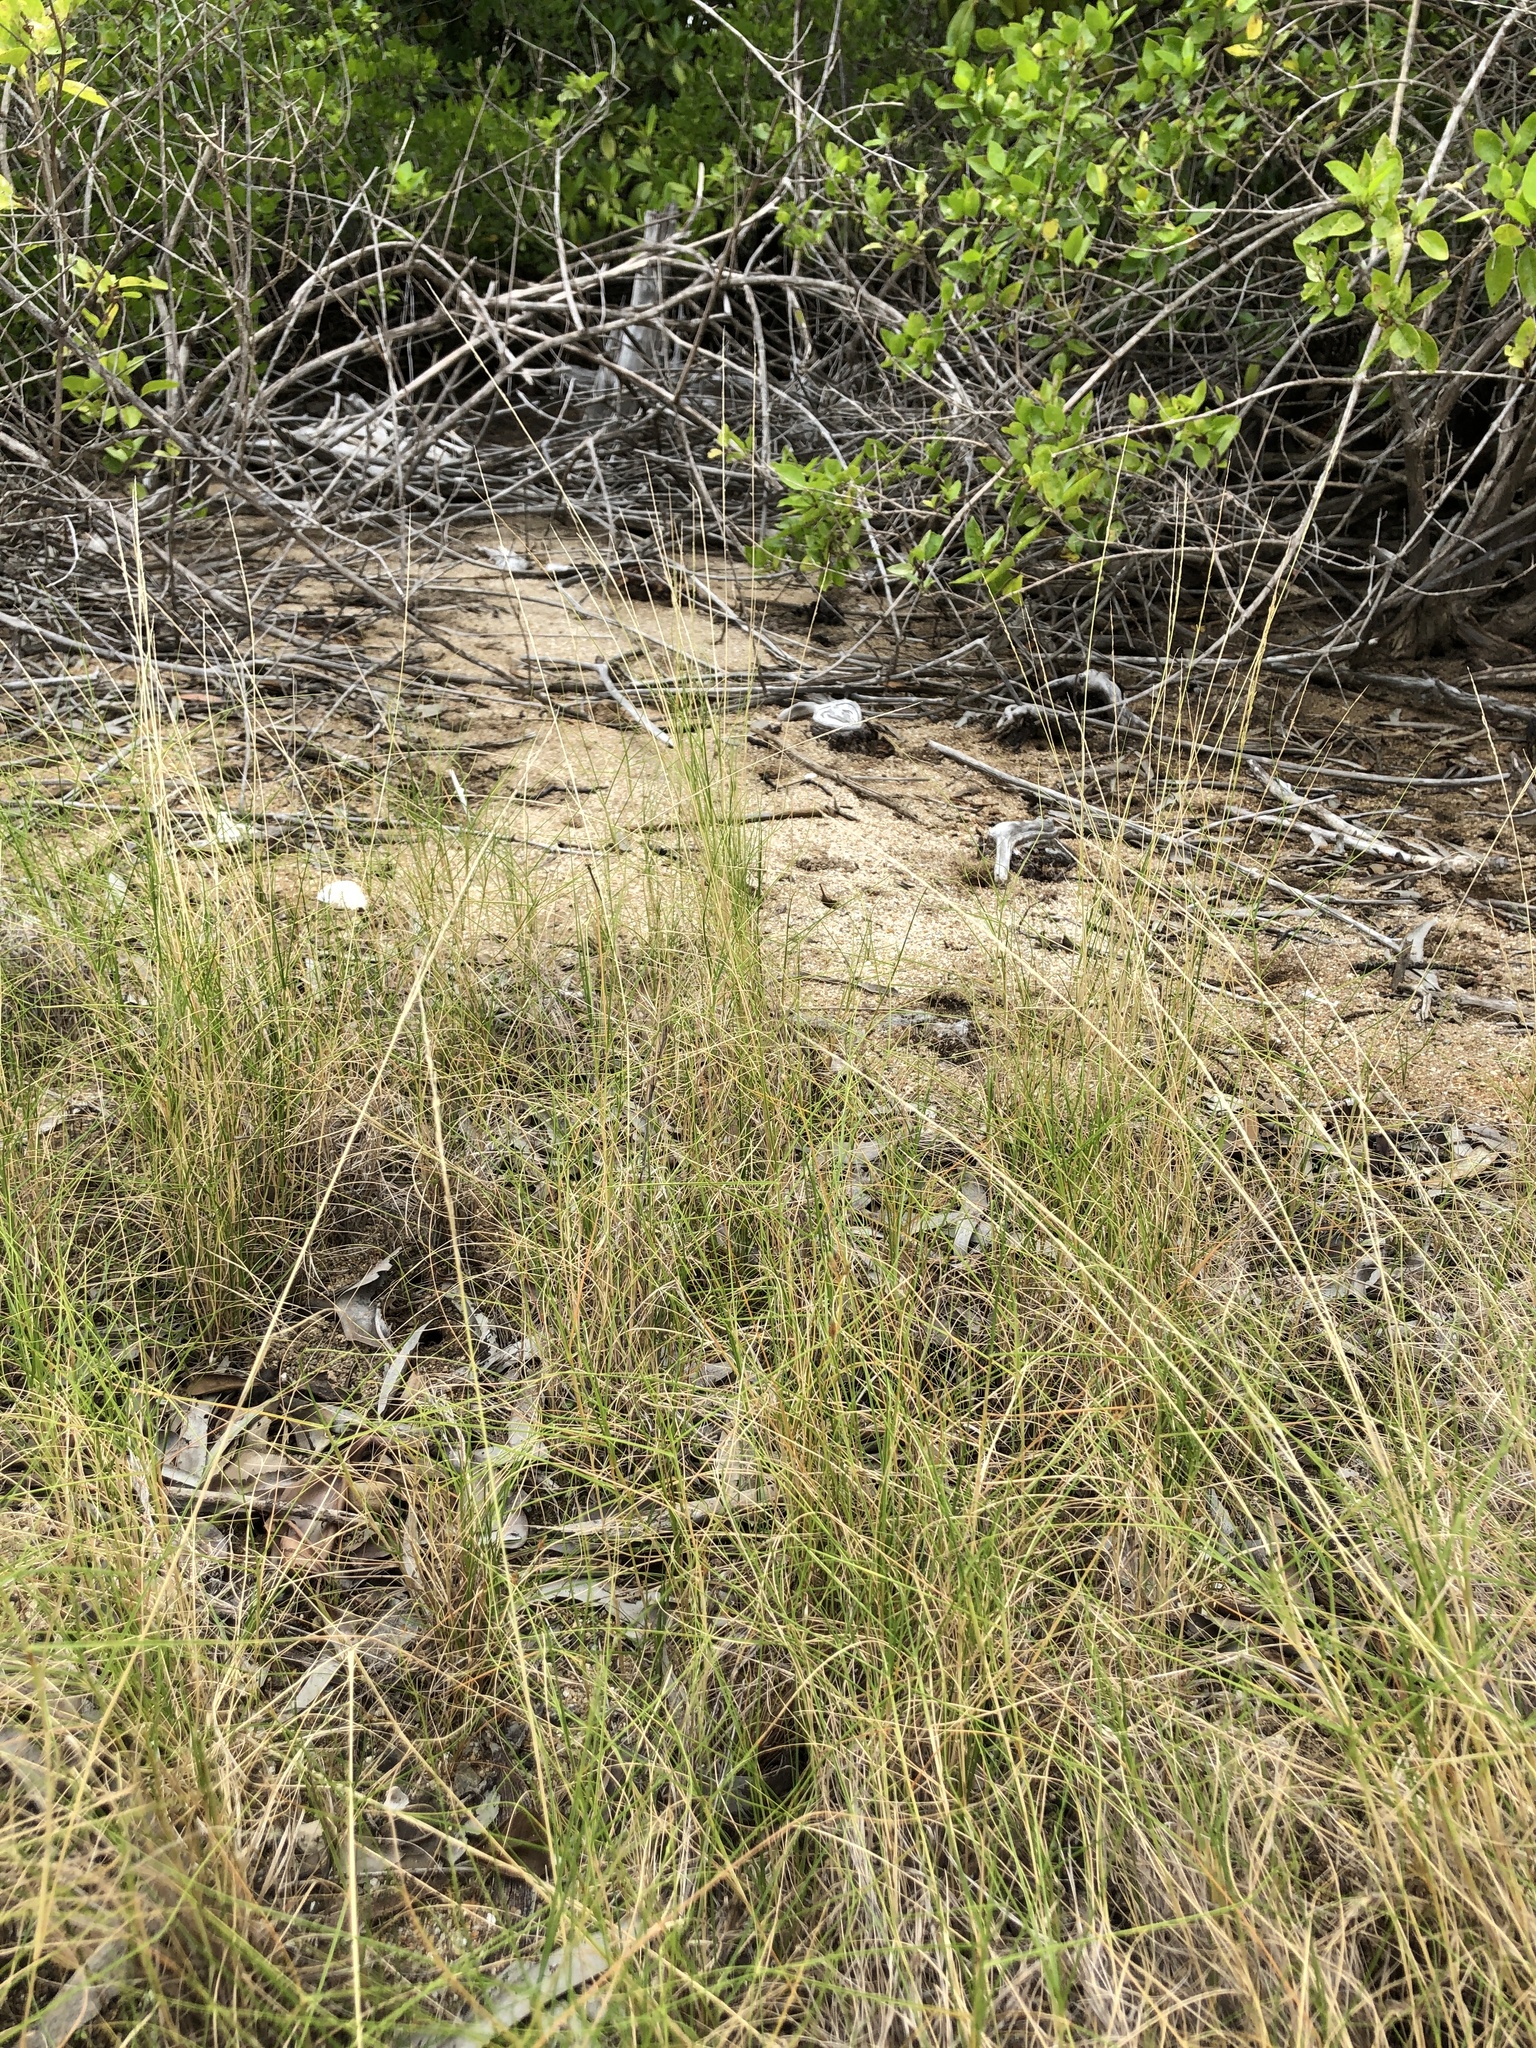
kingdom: Plantae
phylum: Tracheophyta
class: Liliopsida
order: Poales
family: Poaceae
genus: Sporobolus
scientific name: Sporobolus virginicus
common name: Beach dropseed
